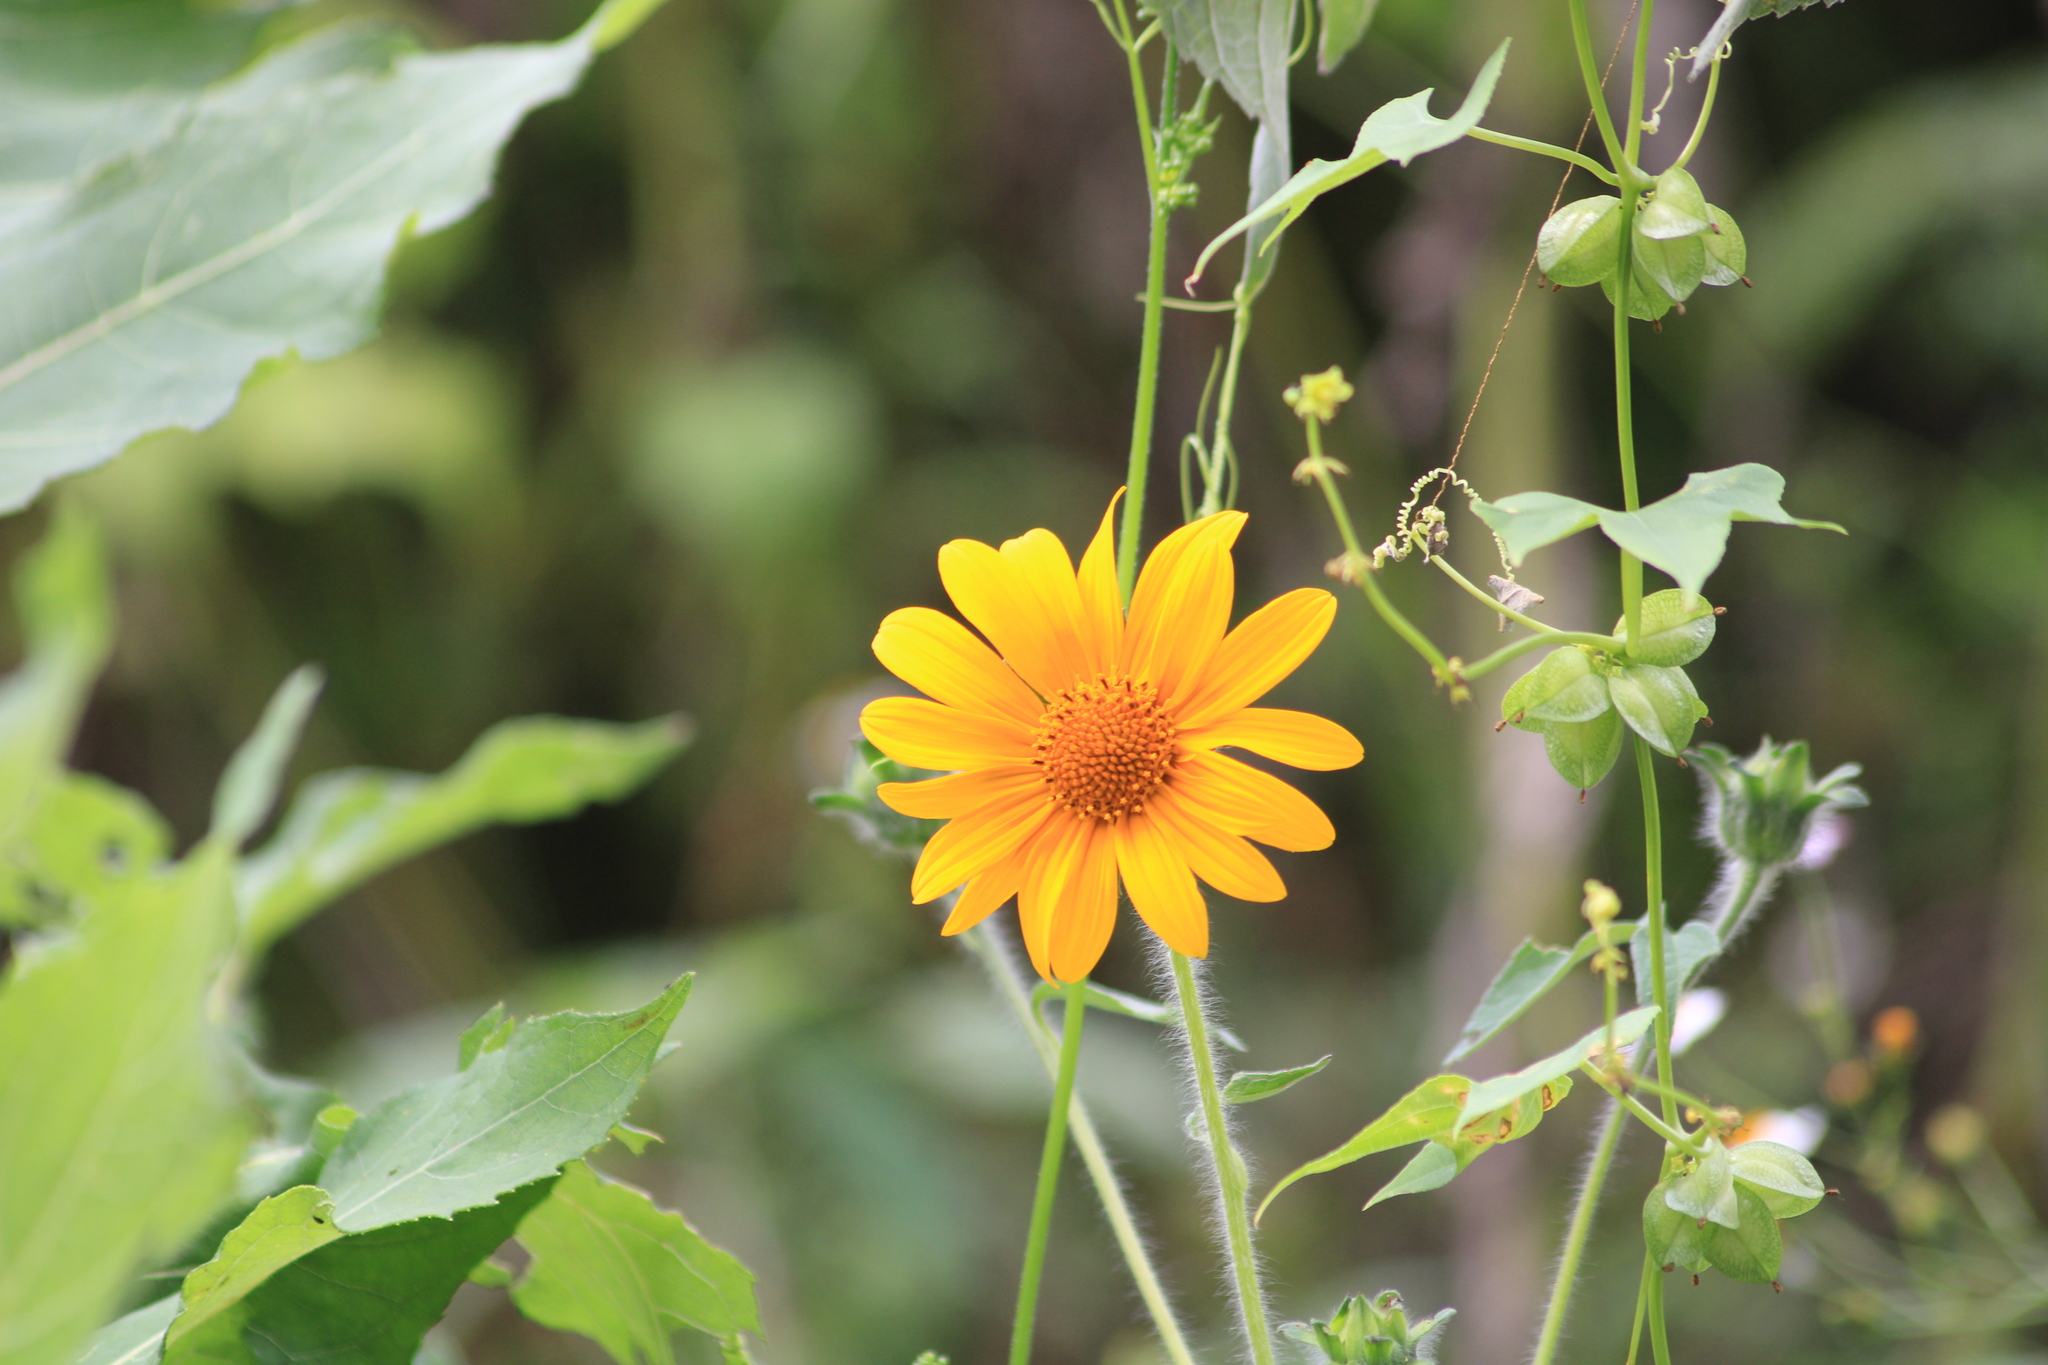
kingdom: Plantae
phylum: Tracheophyta
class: Magnoliopsida
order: Asterales
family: Asteraceae
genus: Tithonia
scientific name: Tithonia tubaeformis
